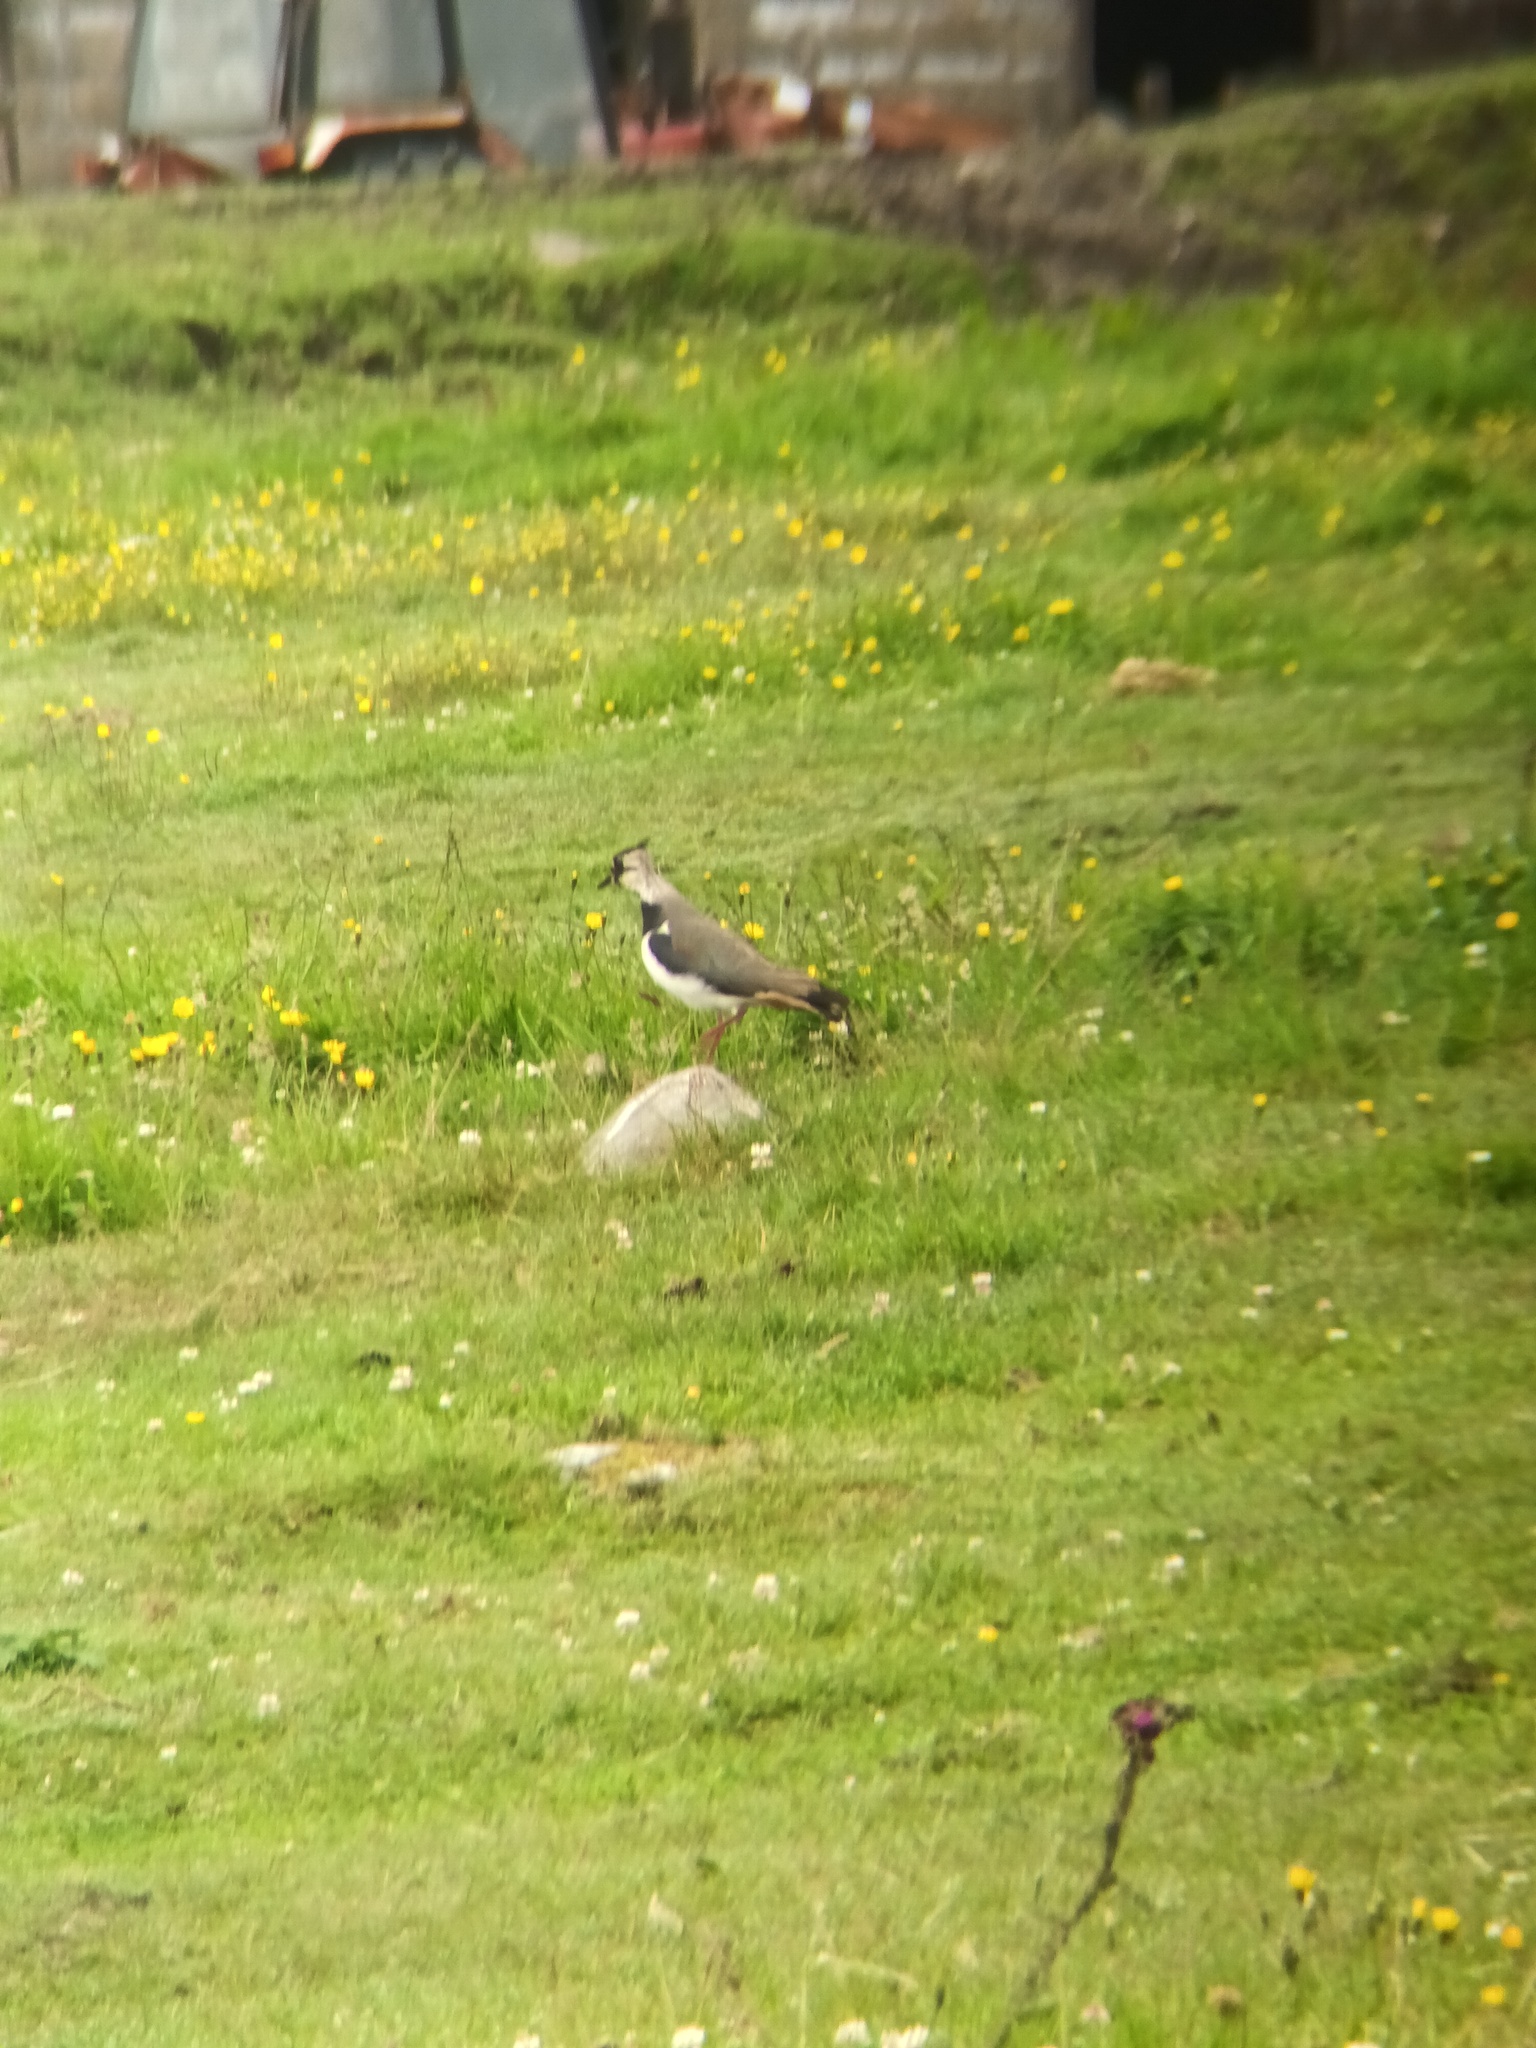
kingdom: Animalia
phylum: Chordata
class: Aves
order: Charadriiformes
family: Charadriidae
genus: Vanellus
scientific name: Vanellus vanellus
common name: Northern lapwing
